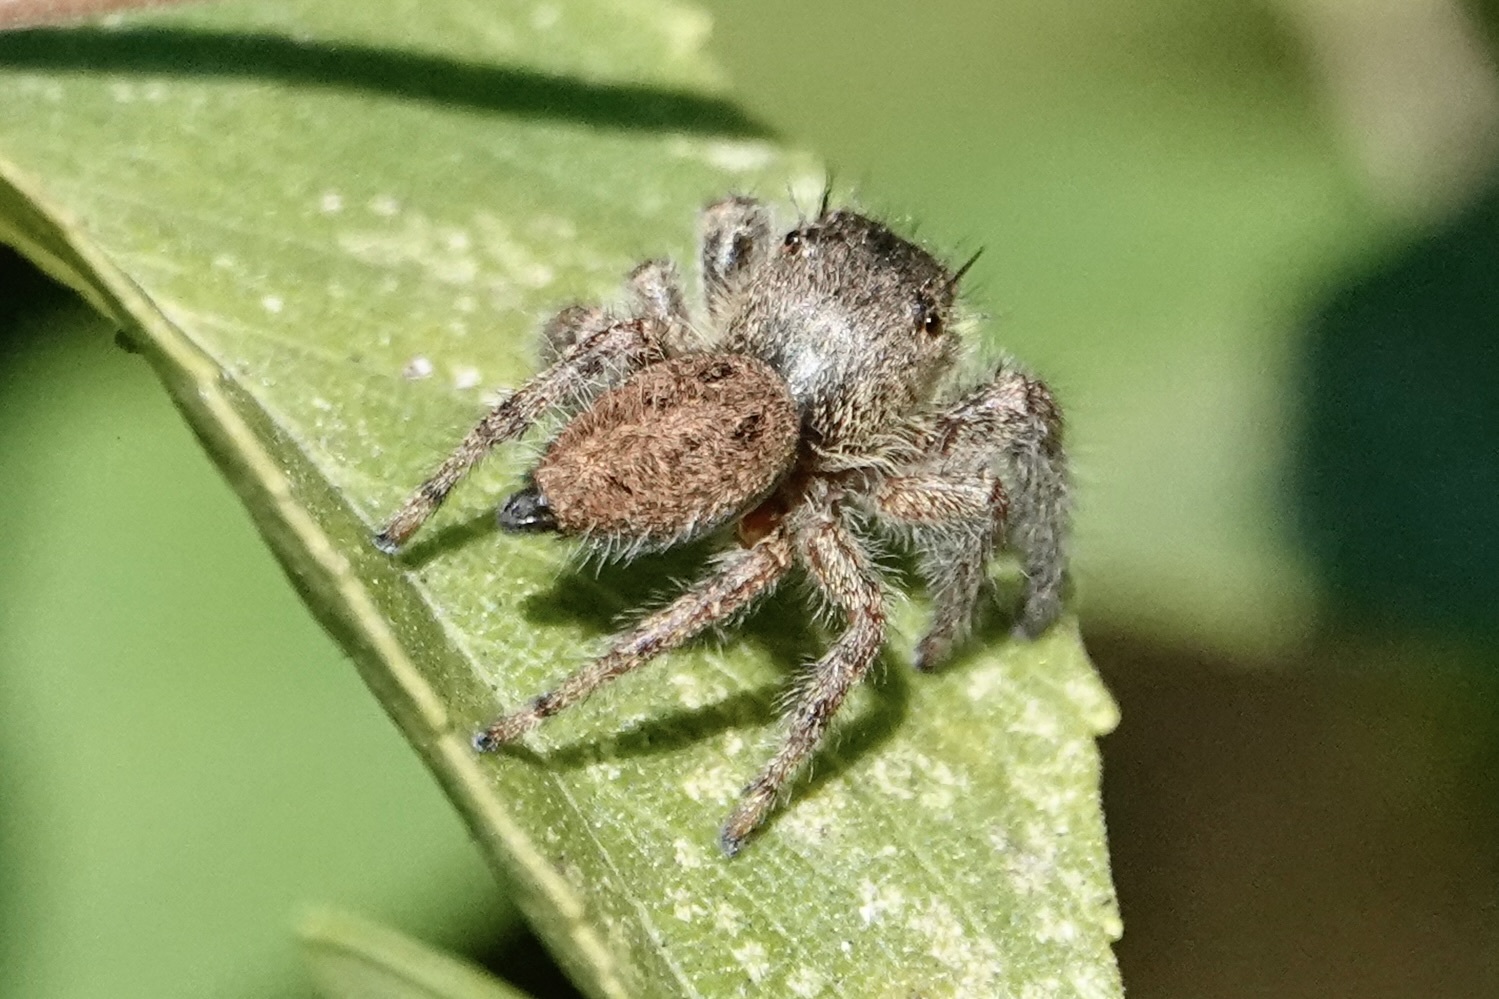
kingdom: Animalia
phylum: Arthropoda
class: Arachnida
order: Araneae
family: Salticidae
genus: Phidippus
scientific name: Phidippus princeps
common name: Grayish jumping spider
